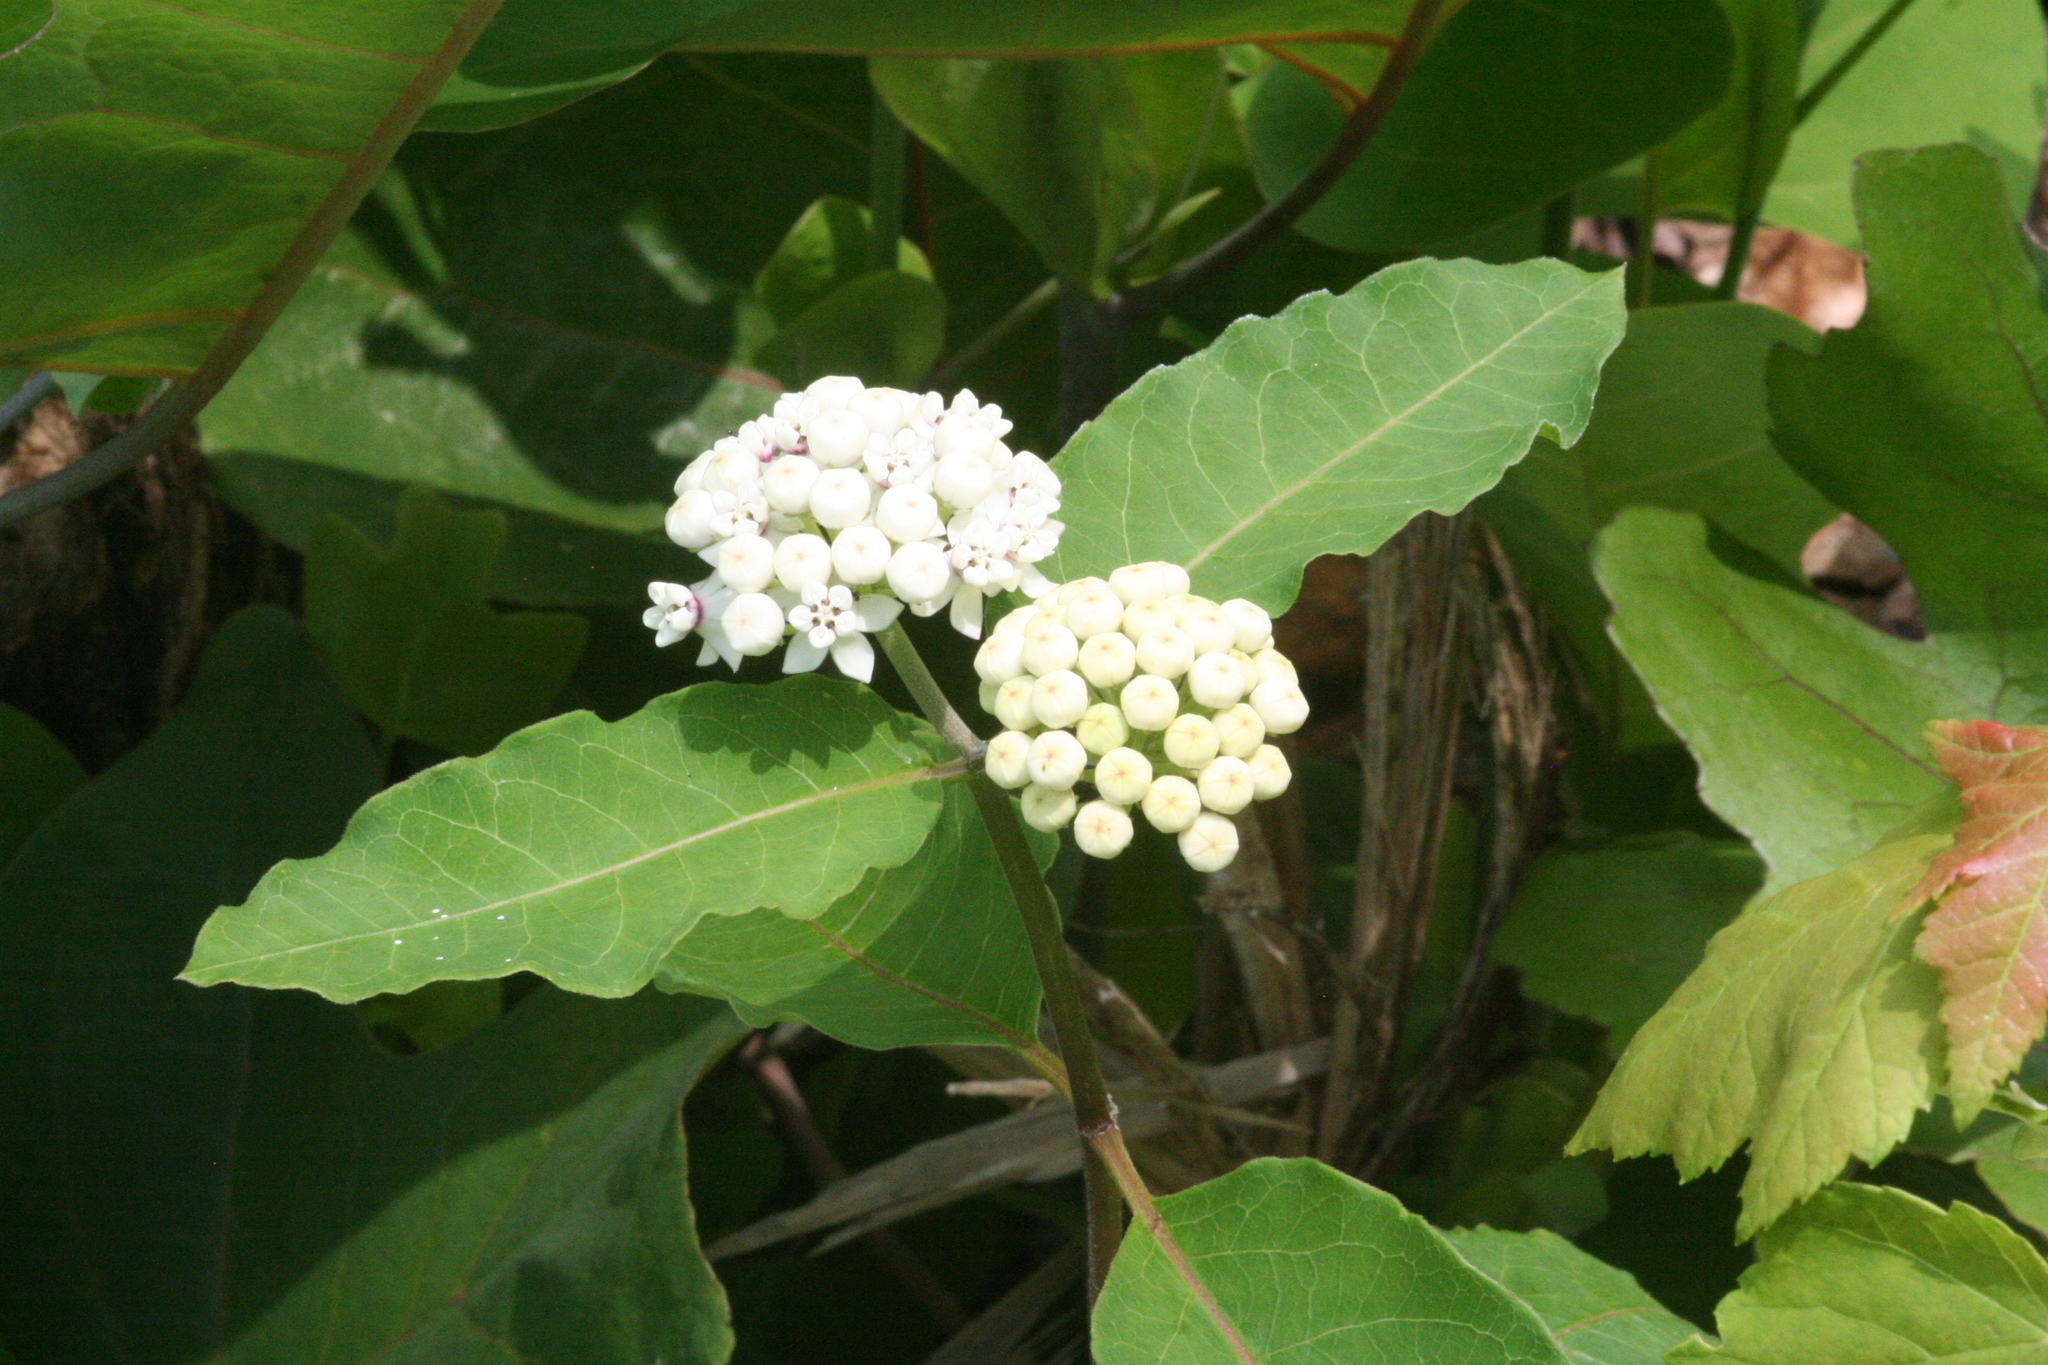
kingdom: Plantae
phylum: Tracheophyta
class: Magnoliopsida
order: Gentianales
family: Apocynaceae
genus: Asclepias
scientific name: Asclepias variegata
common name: Variegated milkweed
